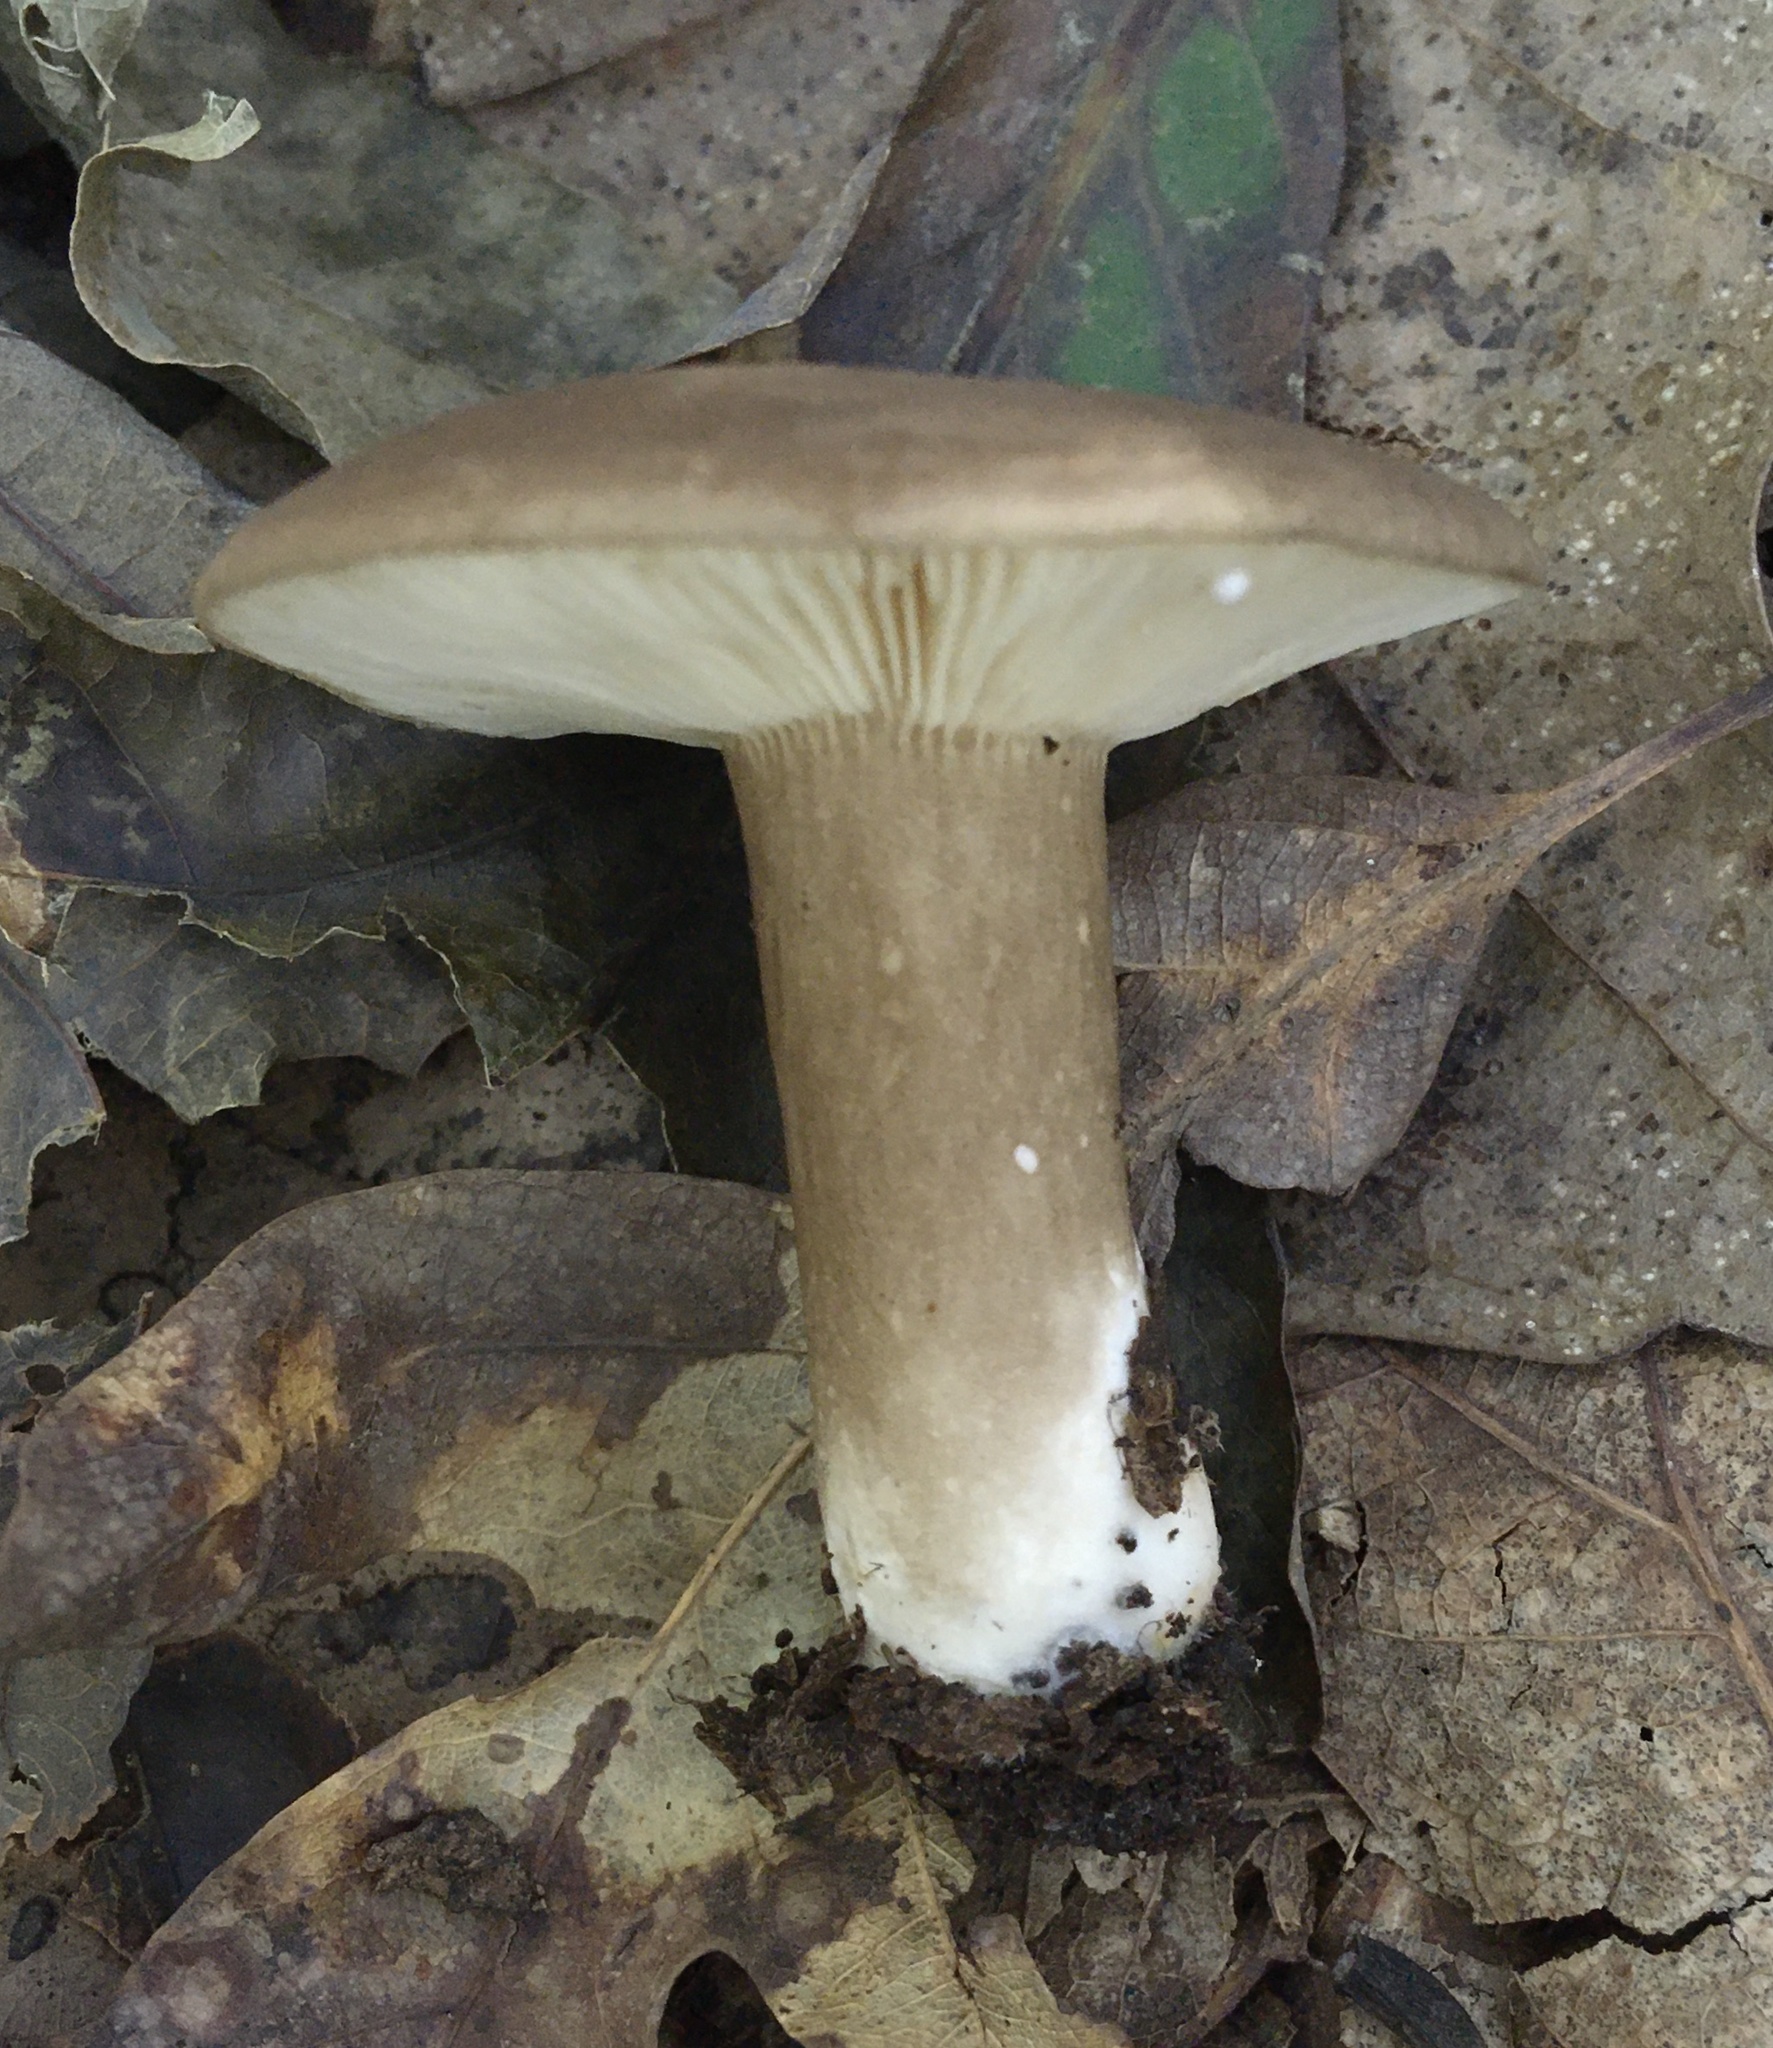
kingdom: Fungi
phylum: Basidiomycota
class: Agaricomycetes
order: Russulales
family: Russulaceae
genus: Lactarius
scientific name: Lactarius fuliginosus
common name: Sooty milkcap
